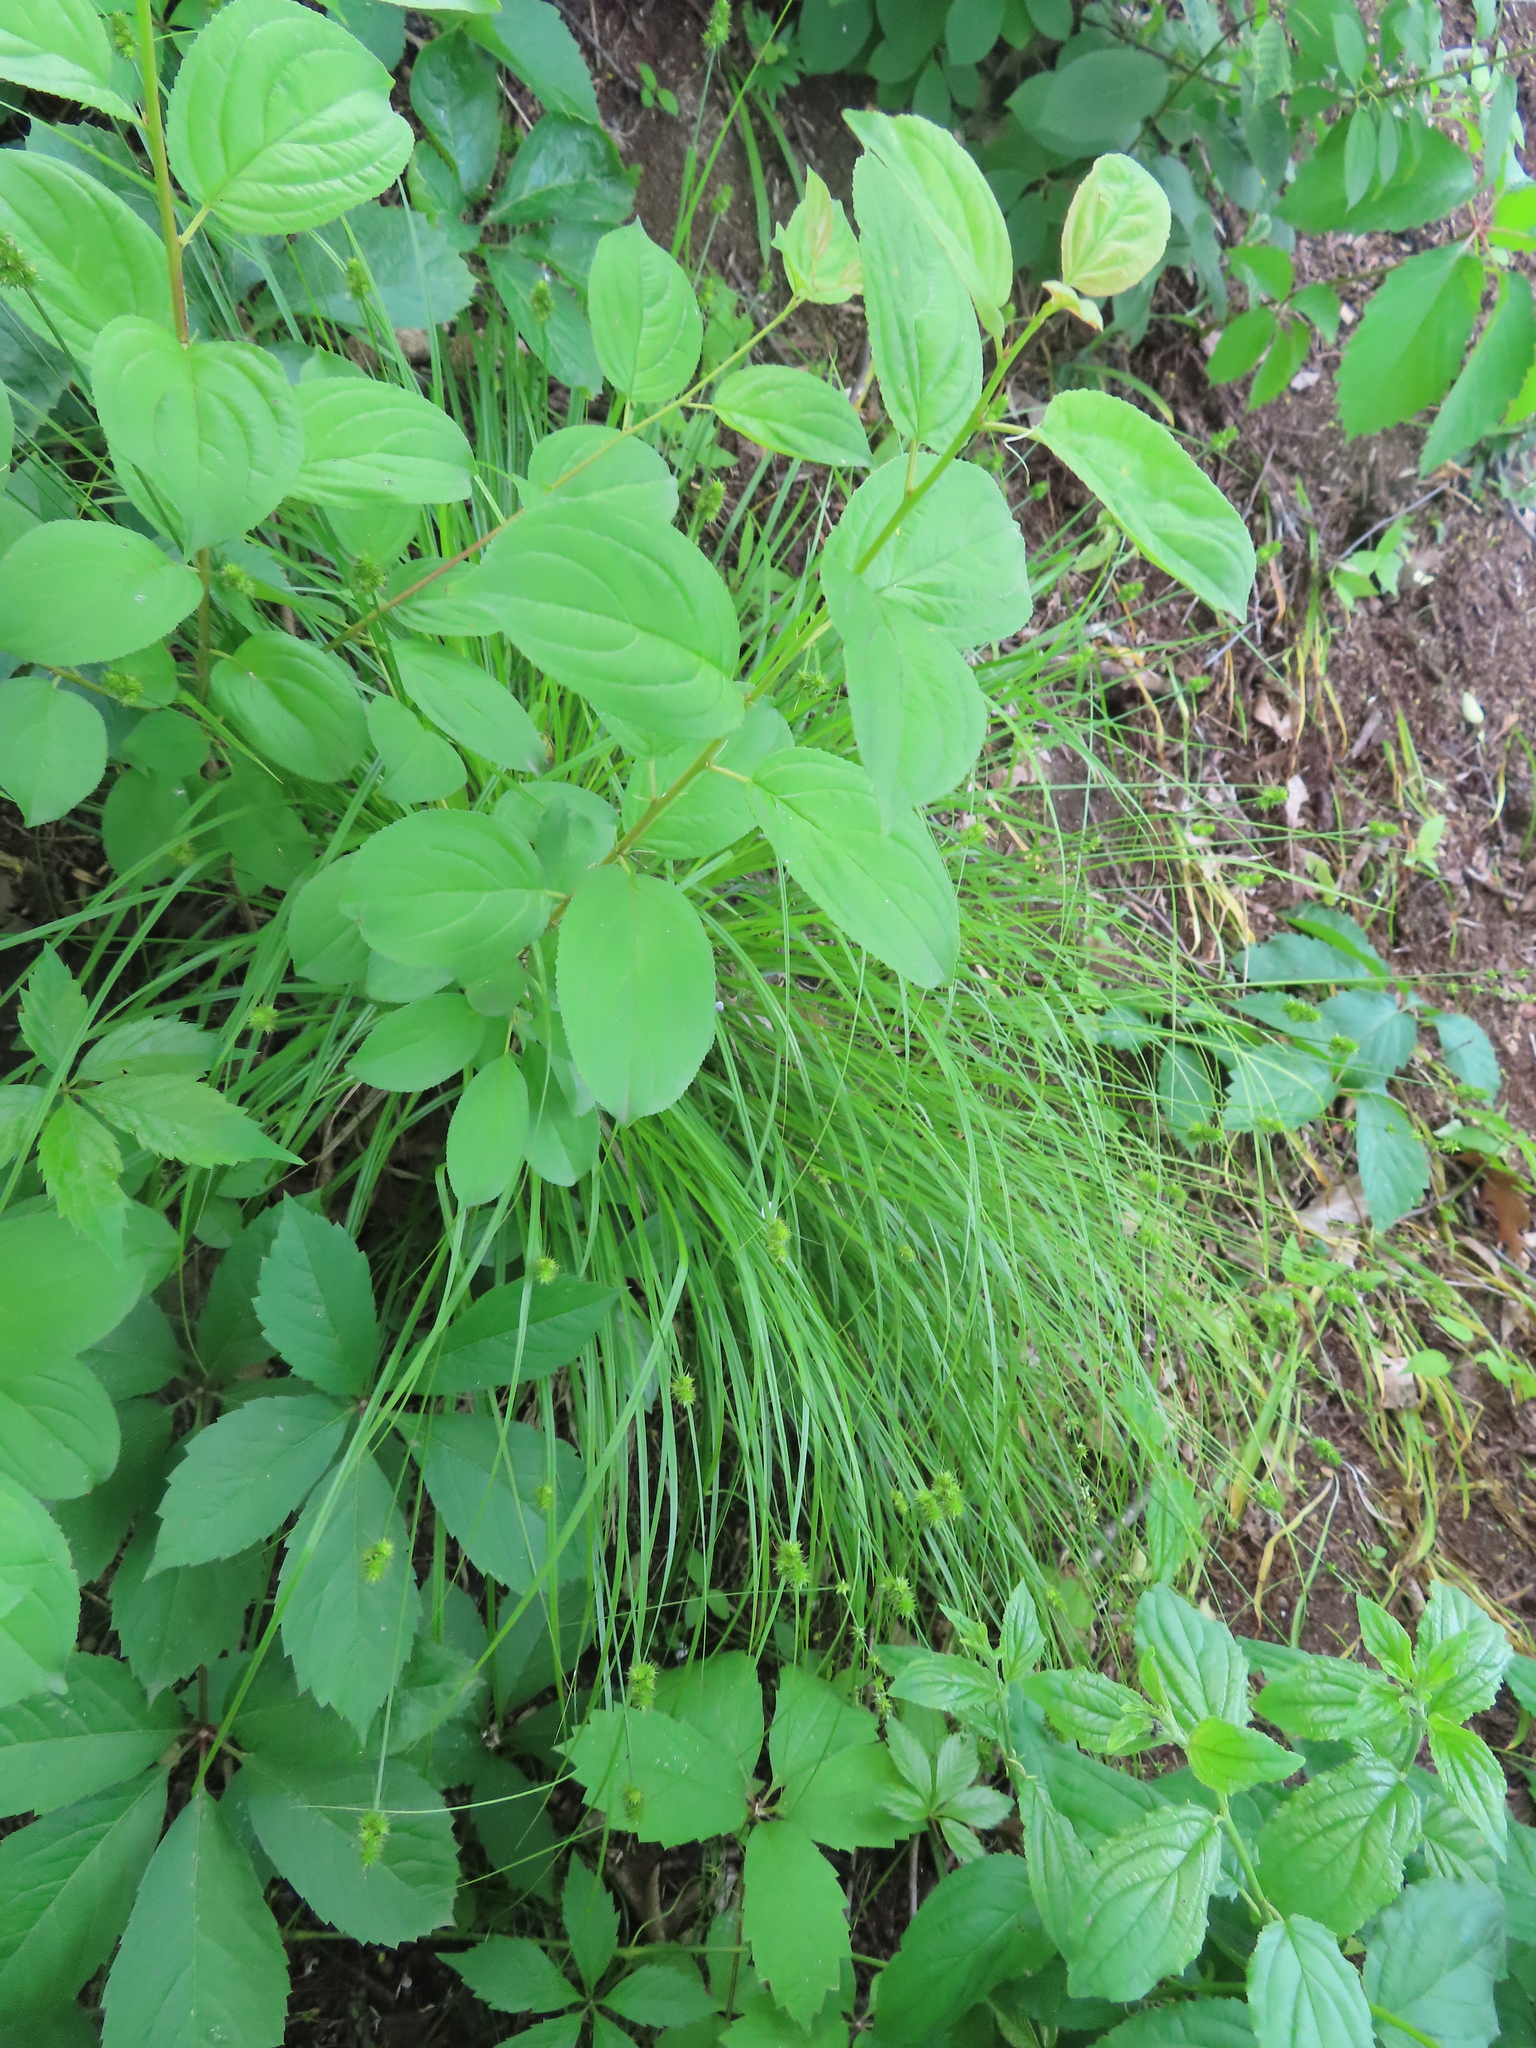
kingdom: Plantae
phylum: Tracheophyta
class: Magnoliopsida
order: Rosales
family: Rhamnaceae
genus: Rhamnus
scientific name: Rhamnus cathartica
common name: Common buckthorn
